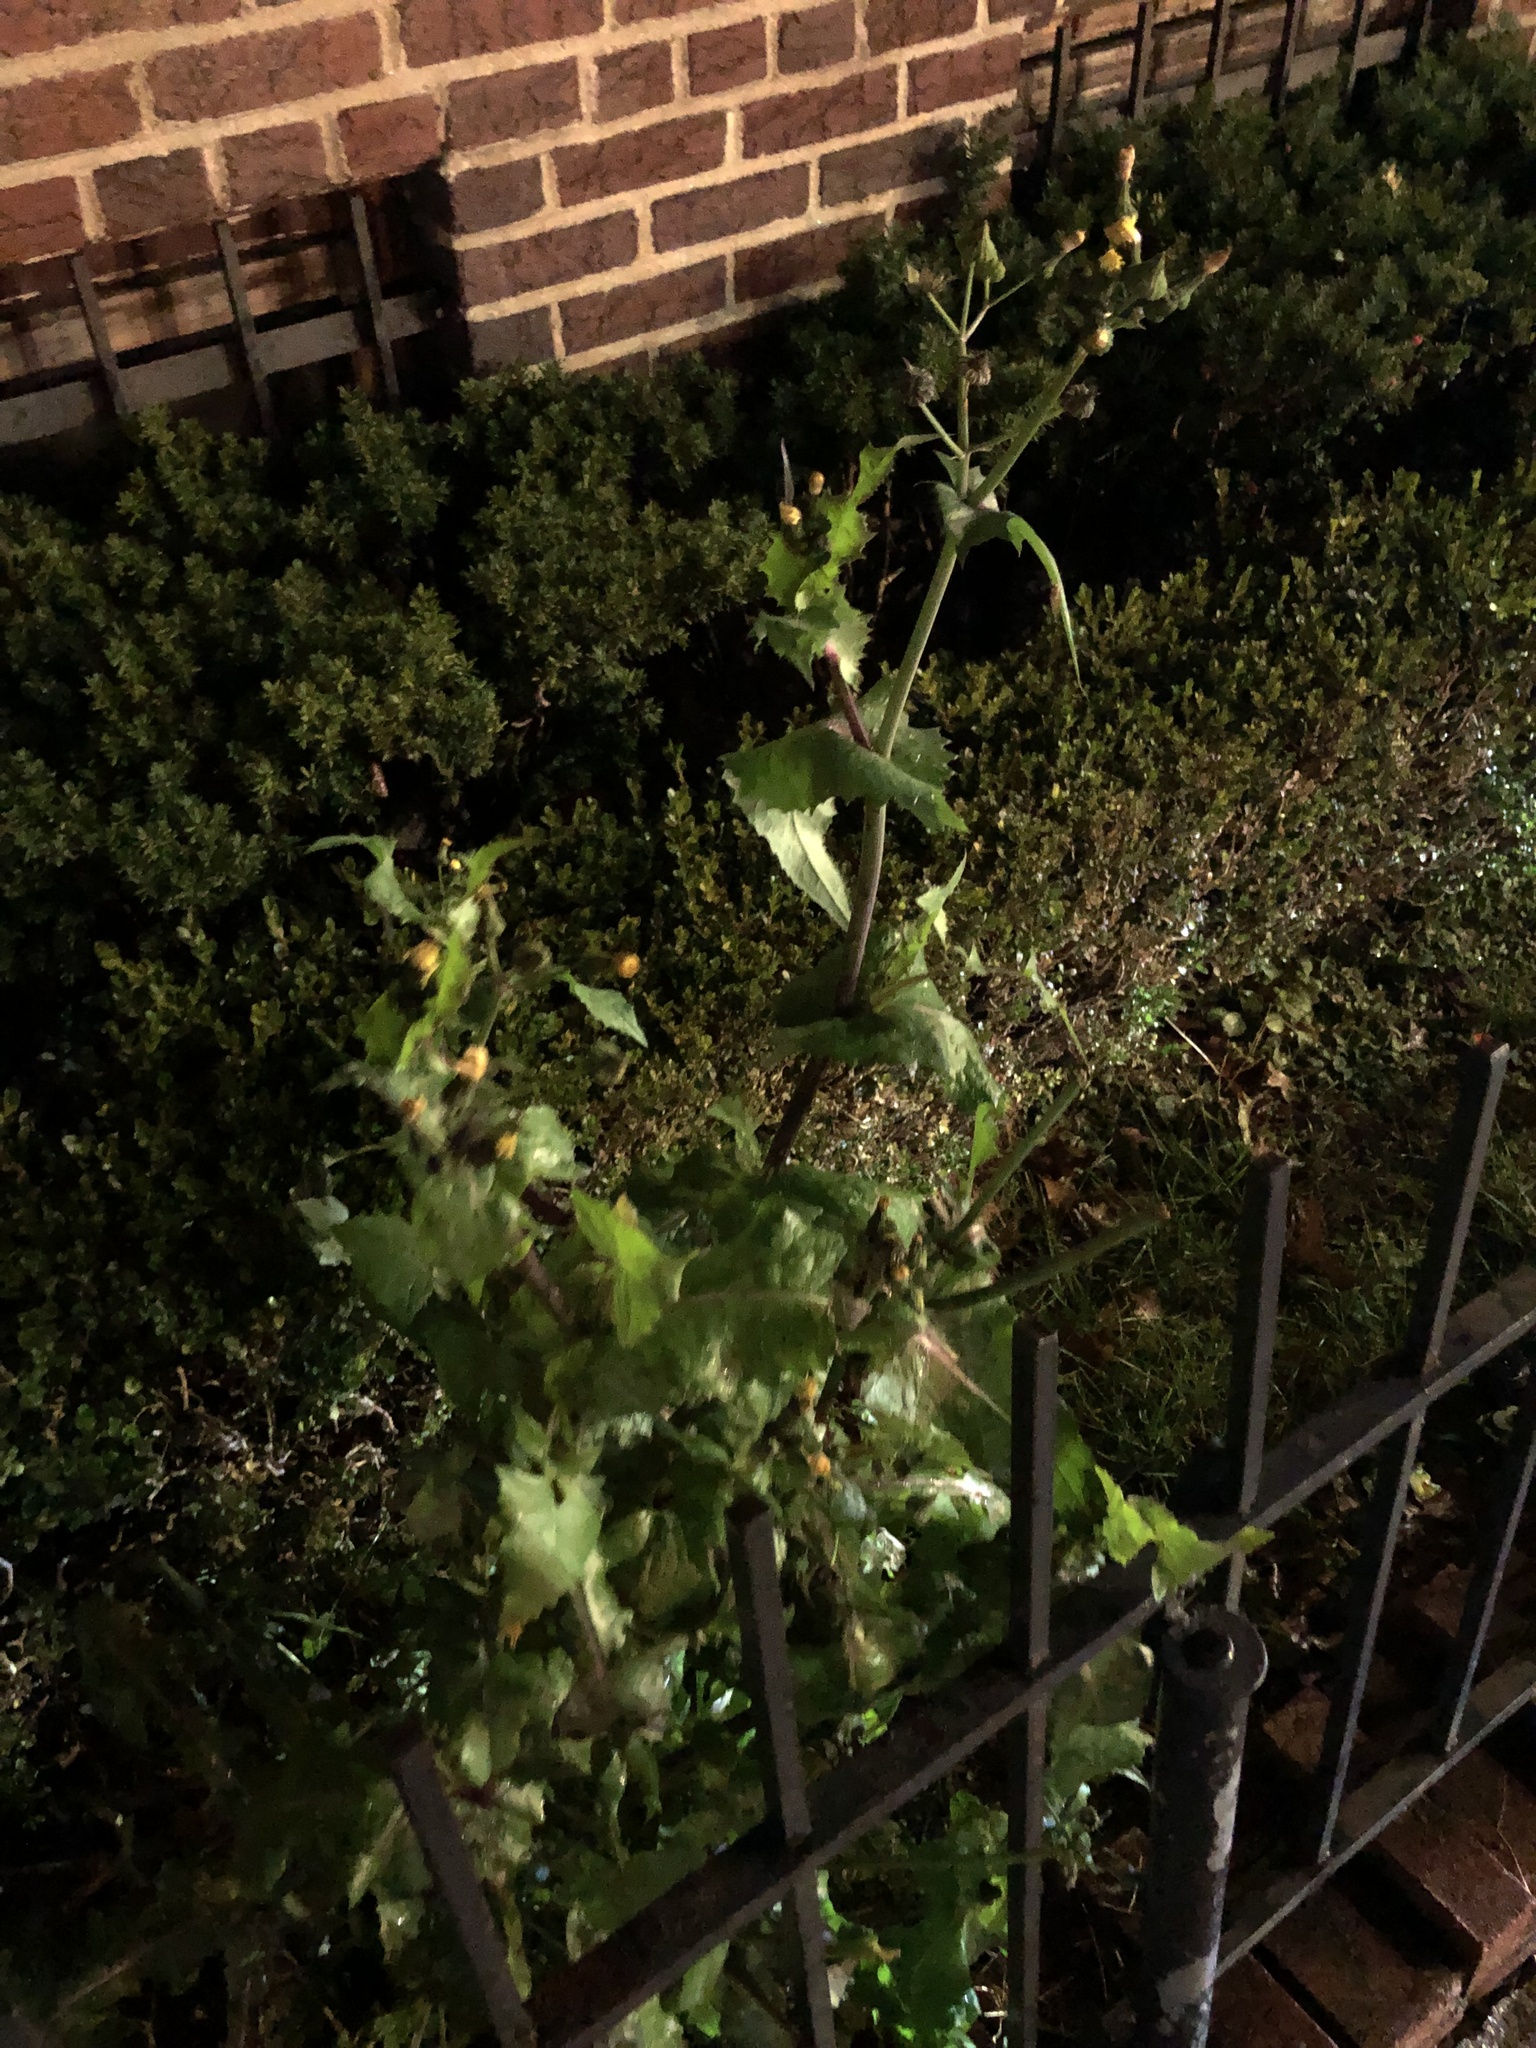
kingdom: Plantae
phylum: Tracheophyta
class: Magnoliopsida
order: Asterales
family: Asteraceae
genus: Sonchus
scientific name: Sonchus oleraceus
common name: Common sowthistle
